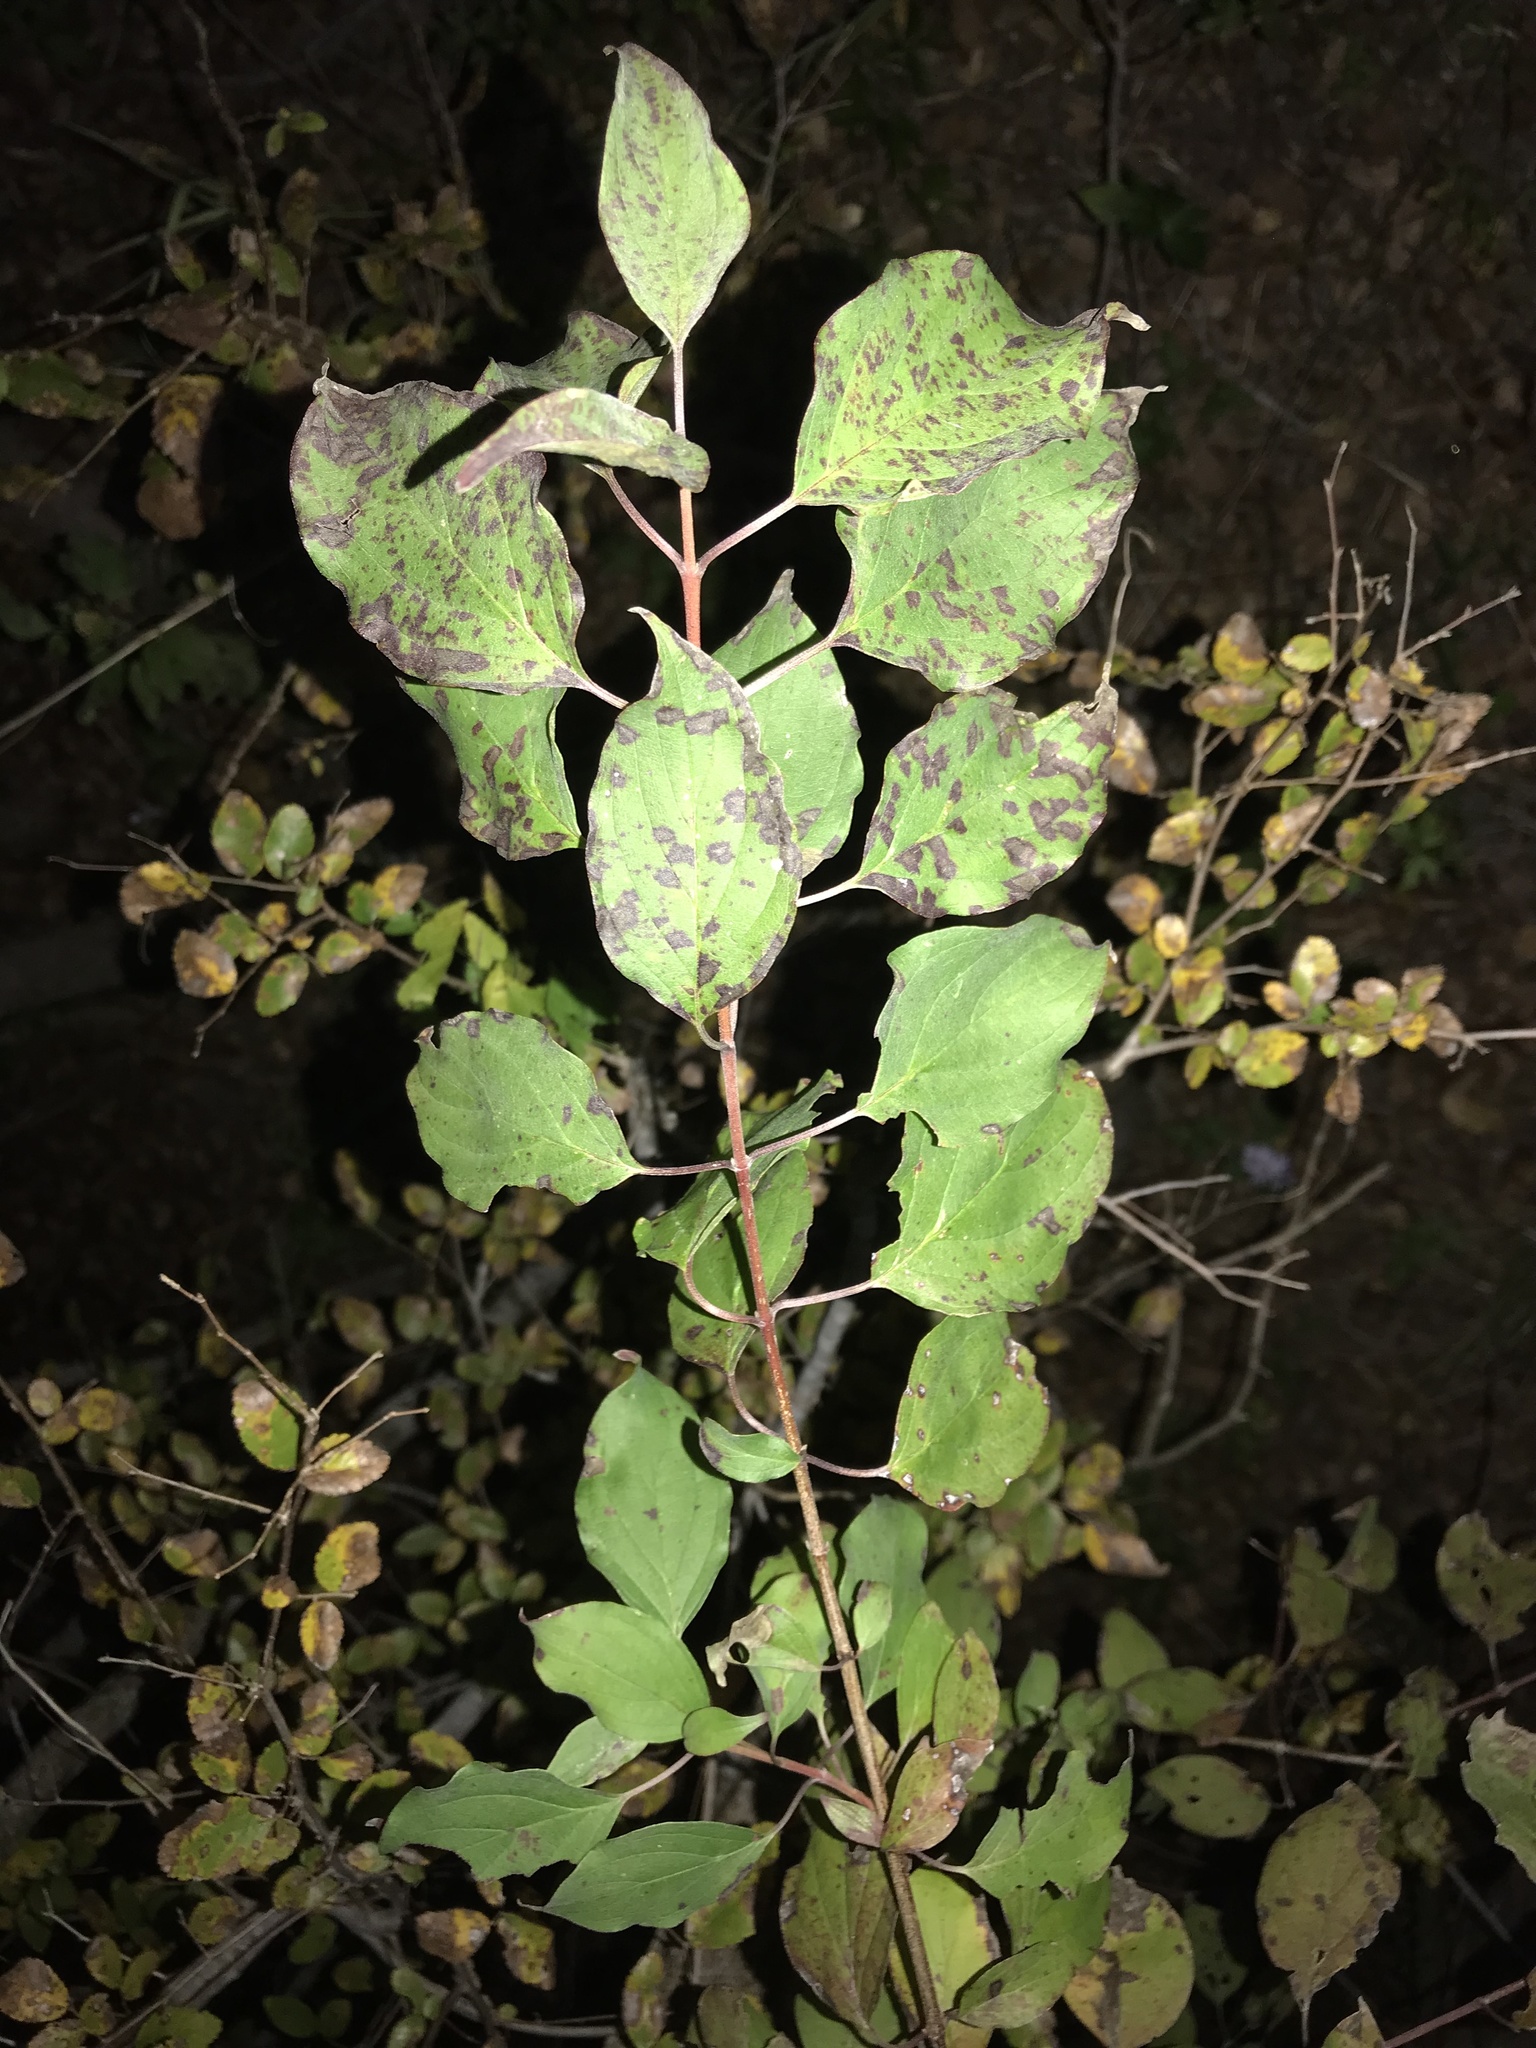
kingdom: Plantae
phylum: Tracheophyta
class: Magnoliopsida
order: Cornales
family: Cornaceae
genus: Cornus
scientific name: Cornus drummondii
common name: Rough-leaf dogwood
